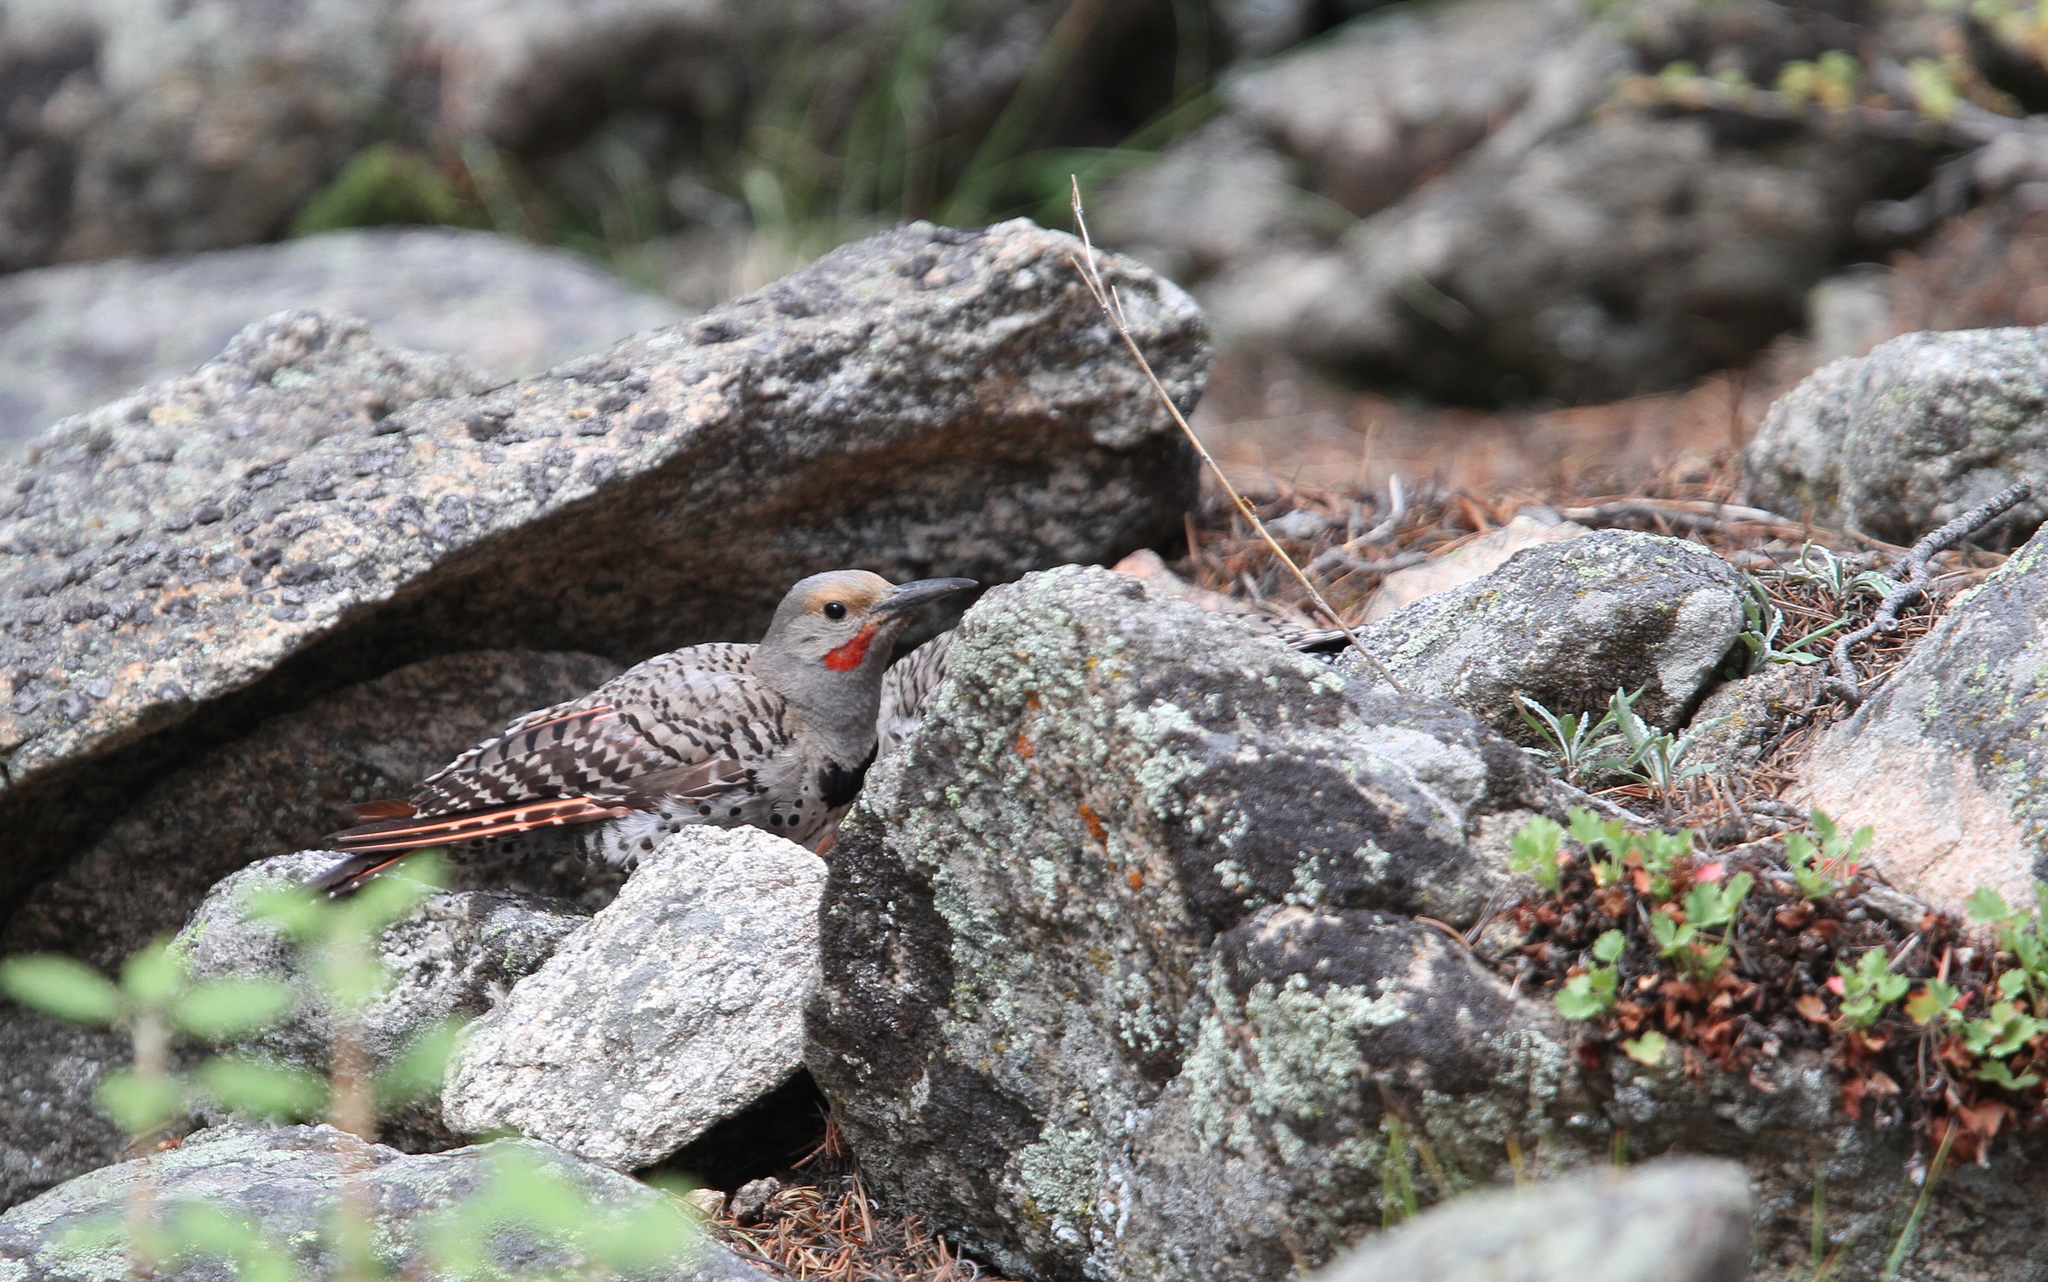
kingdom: Animalia
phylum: Chordata
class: Aves
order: Piciformes
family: Picidae
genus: Colaptes
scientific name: Colaptes auratus
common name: Northern flicker
